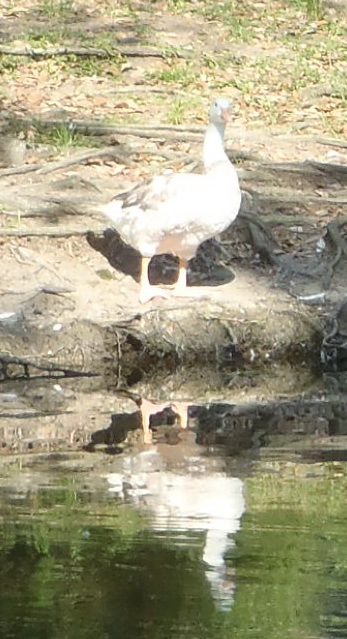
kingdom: Animalia
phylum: Chordata
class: Aves
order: Anseriformes
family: Anatidae
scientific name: Anatidae
